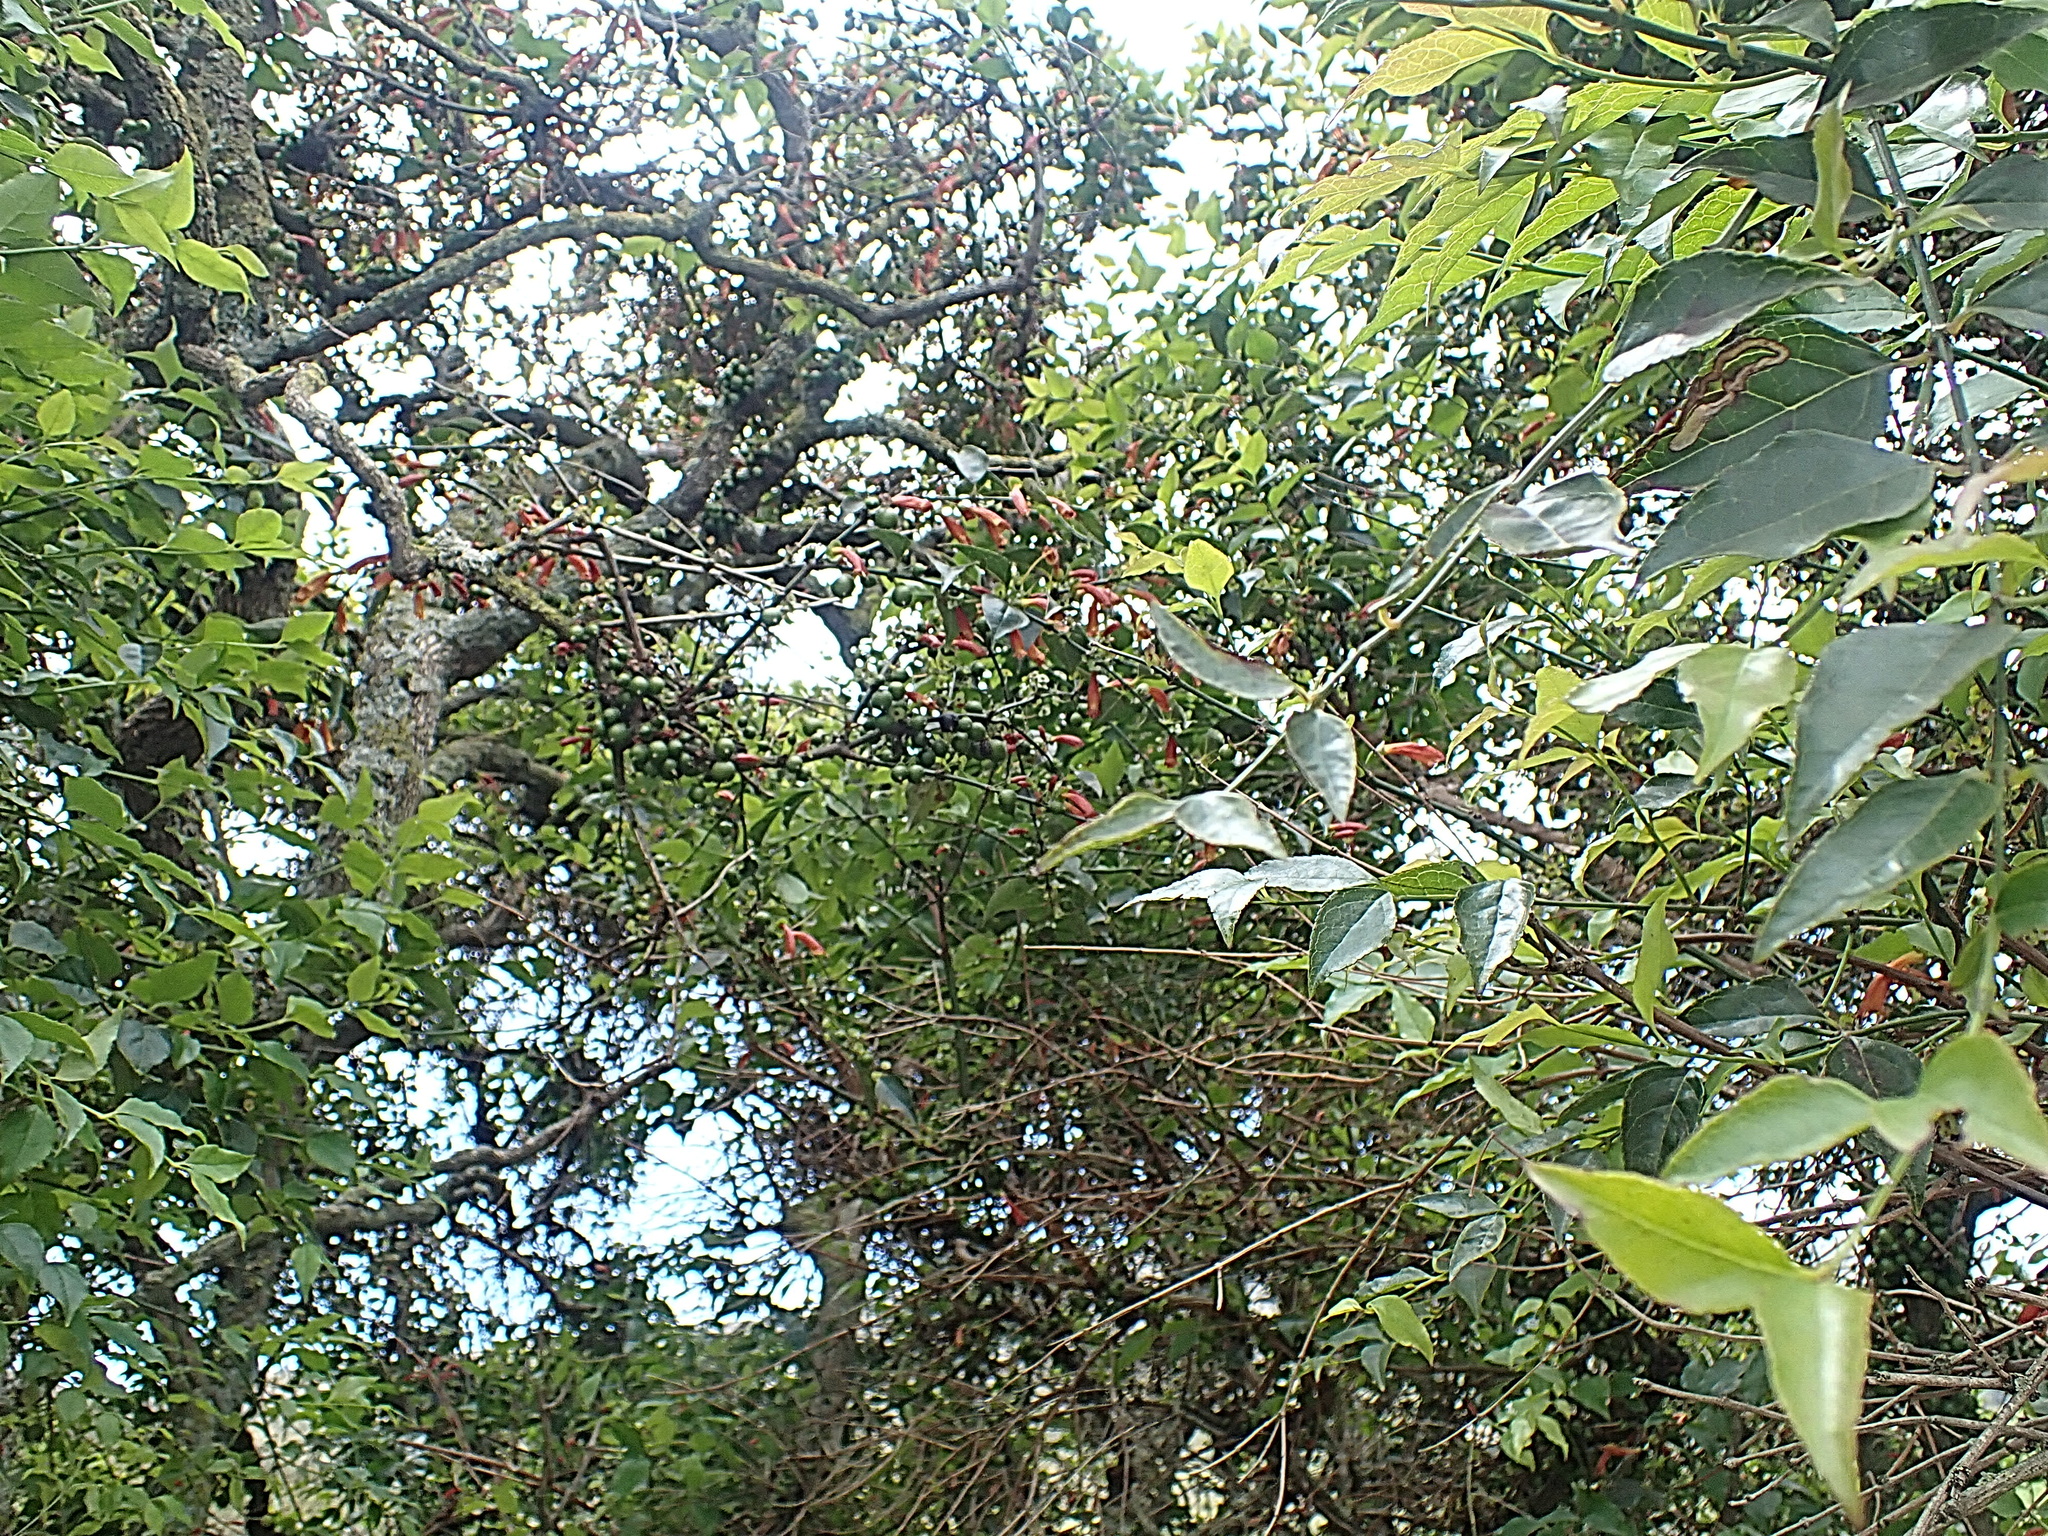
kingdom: Plantae
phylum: Tracheophyta
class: Magnoliopsida
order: Lamiales
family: Stilbaceae
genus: Halleria
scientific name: Halleria lucida
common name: Tree fuschia
